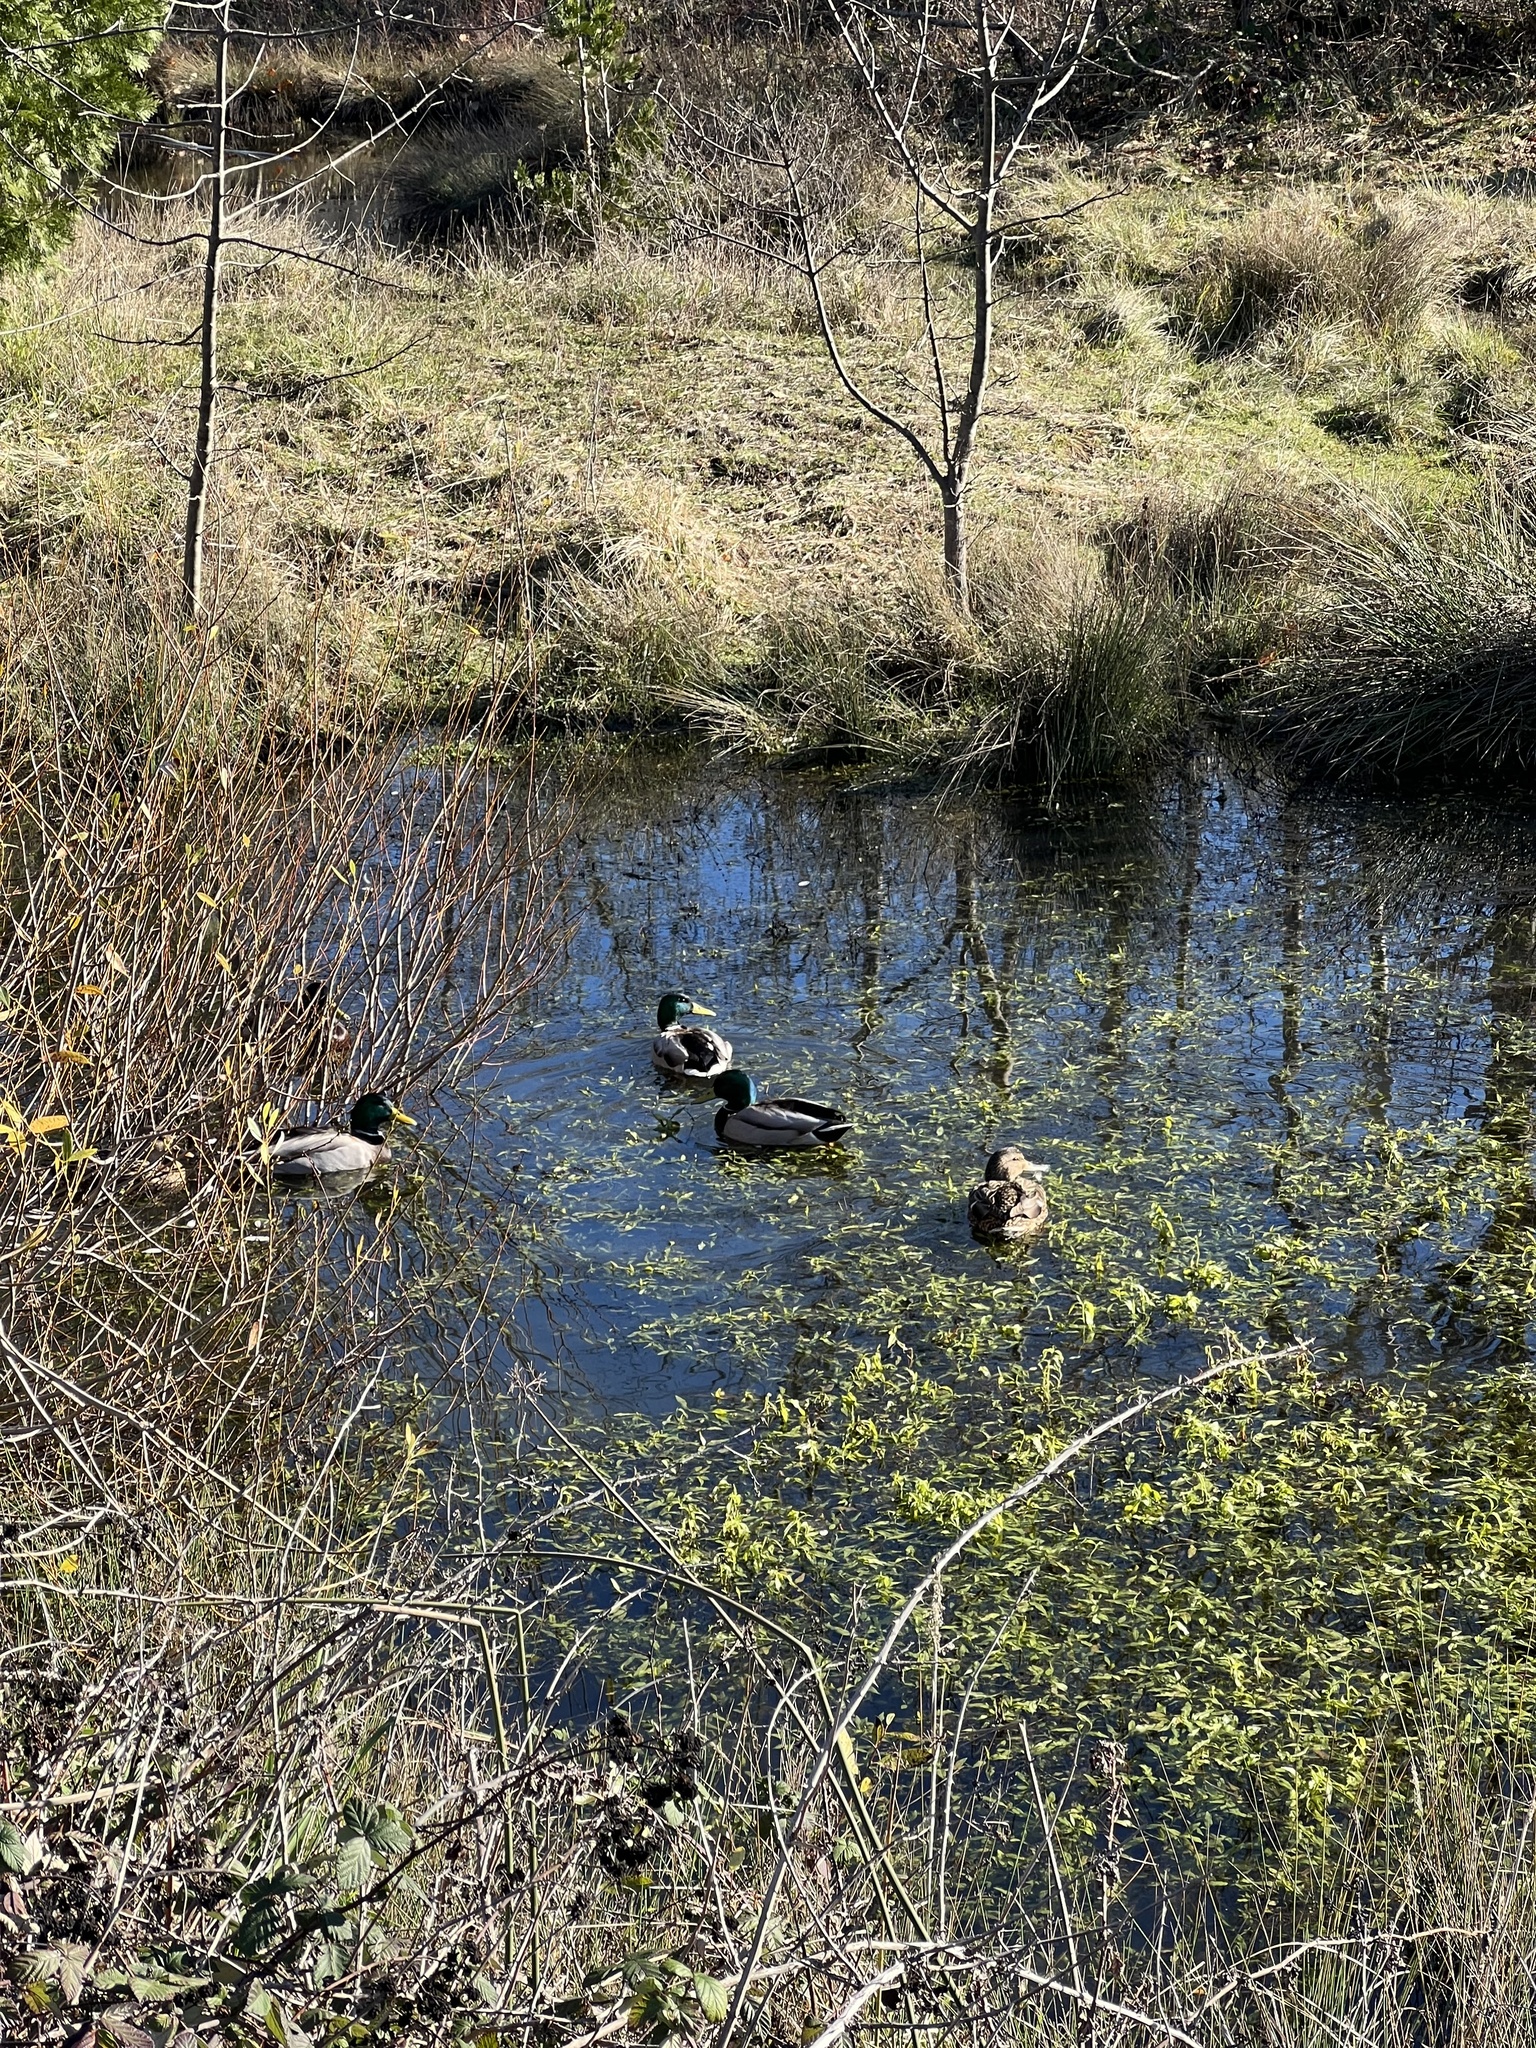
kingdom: Animalia
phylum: Chordata
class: Aves
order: Anseriformes
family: Anatidae
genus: Anas
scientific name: Anas platyrhynchos
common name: Mallard
